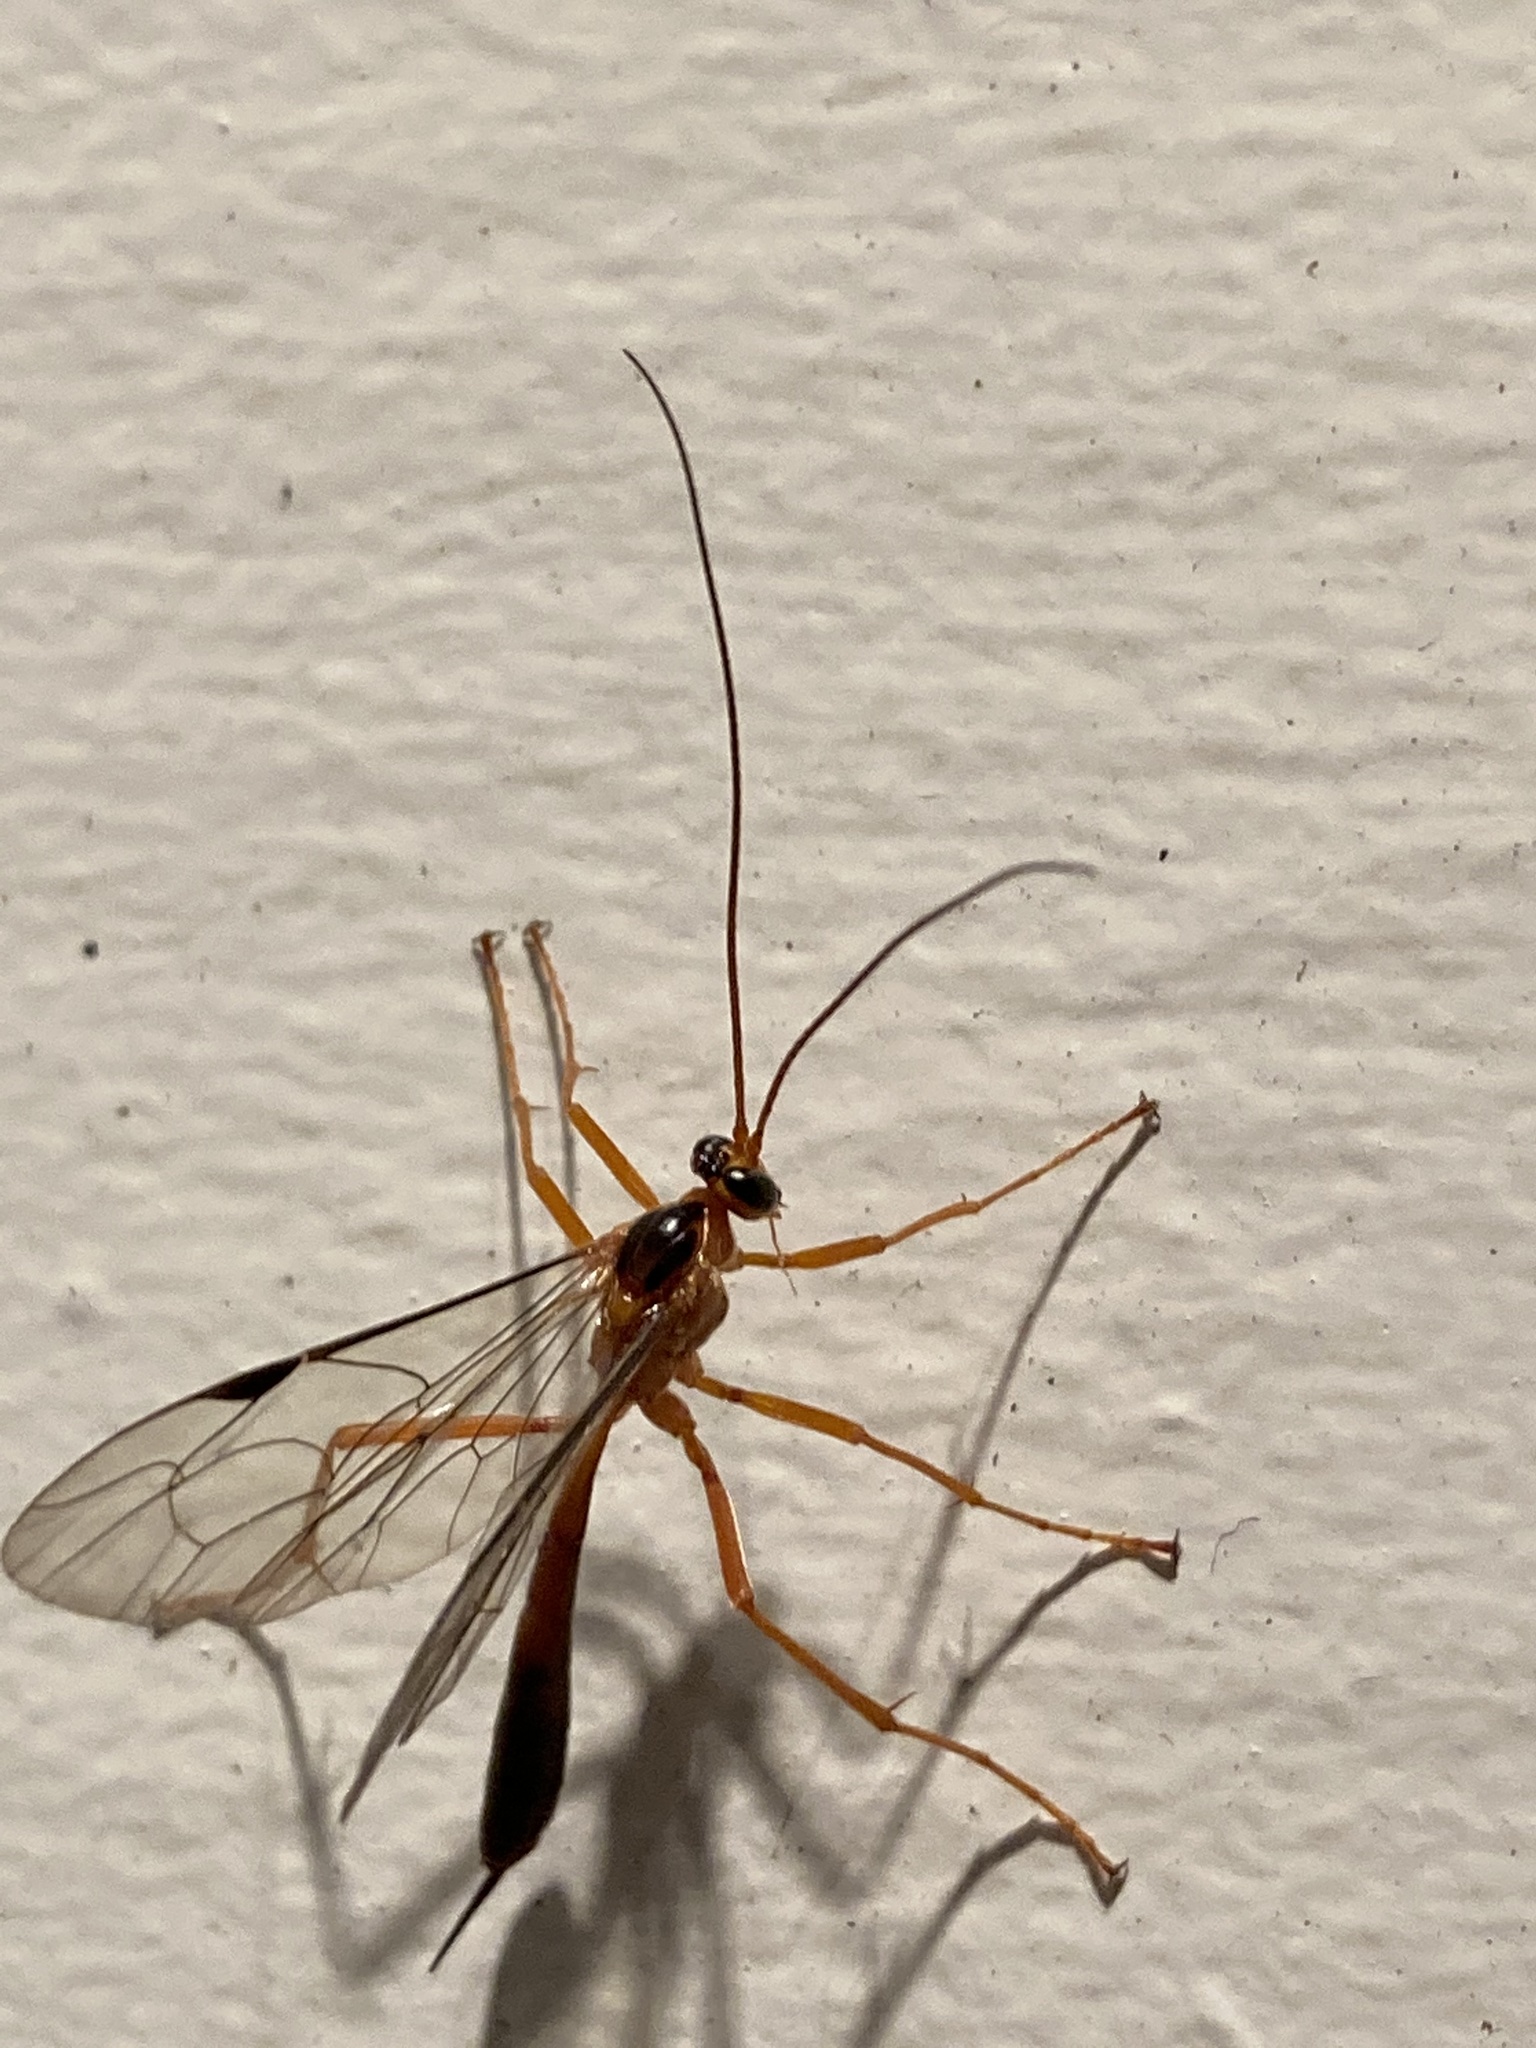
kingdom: Animalia
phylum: Arthropoda
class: Insecta
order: Hymenoptera
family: Ichneumonidae
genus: Netelia
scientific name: Netelia ephippiata
